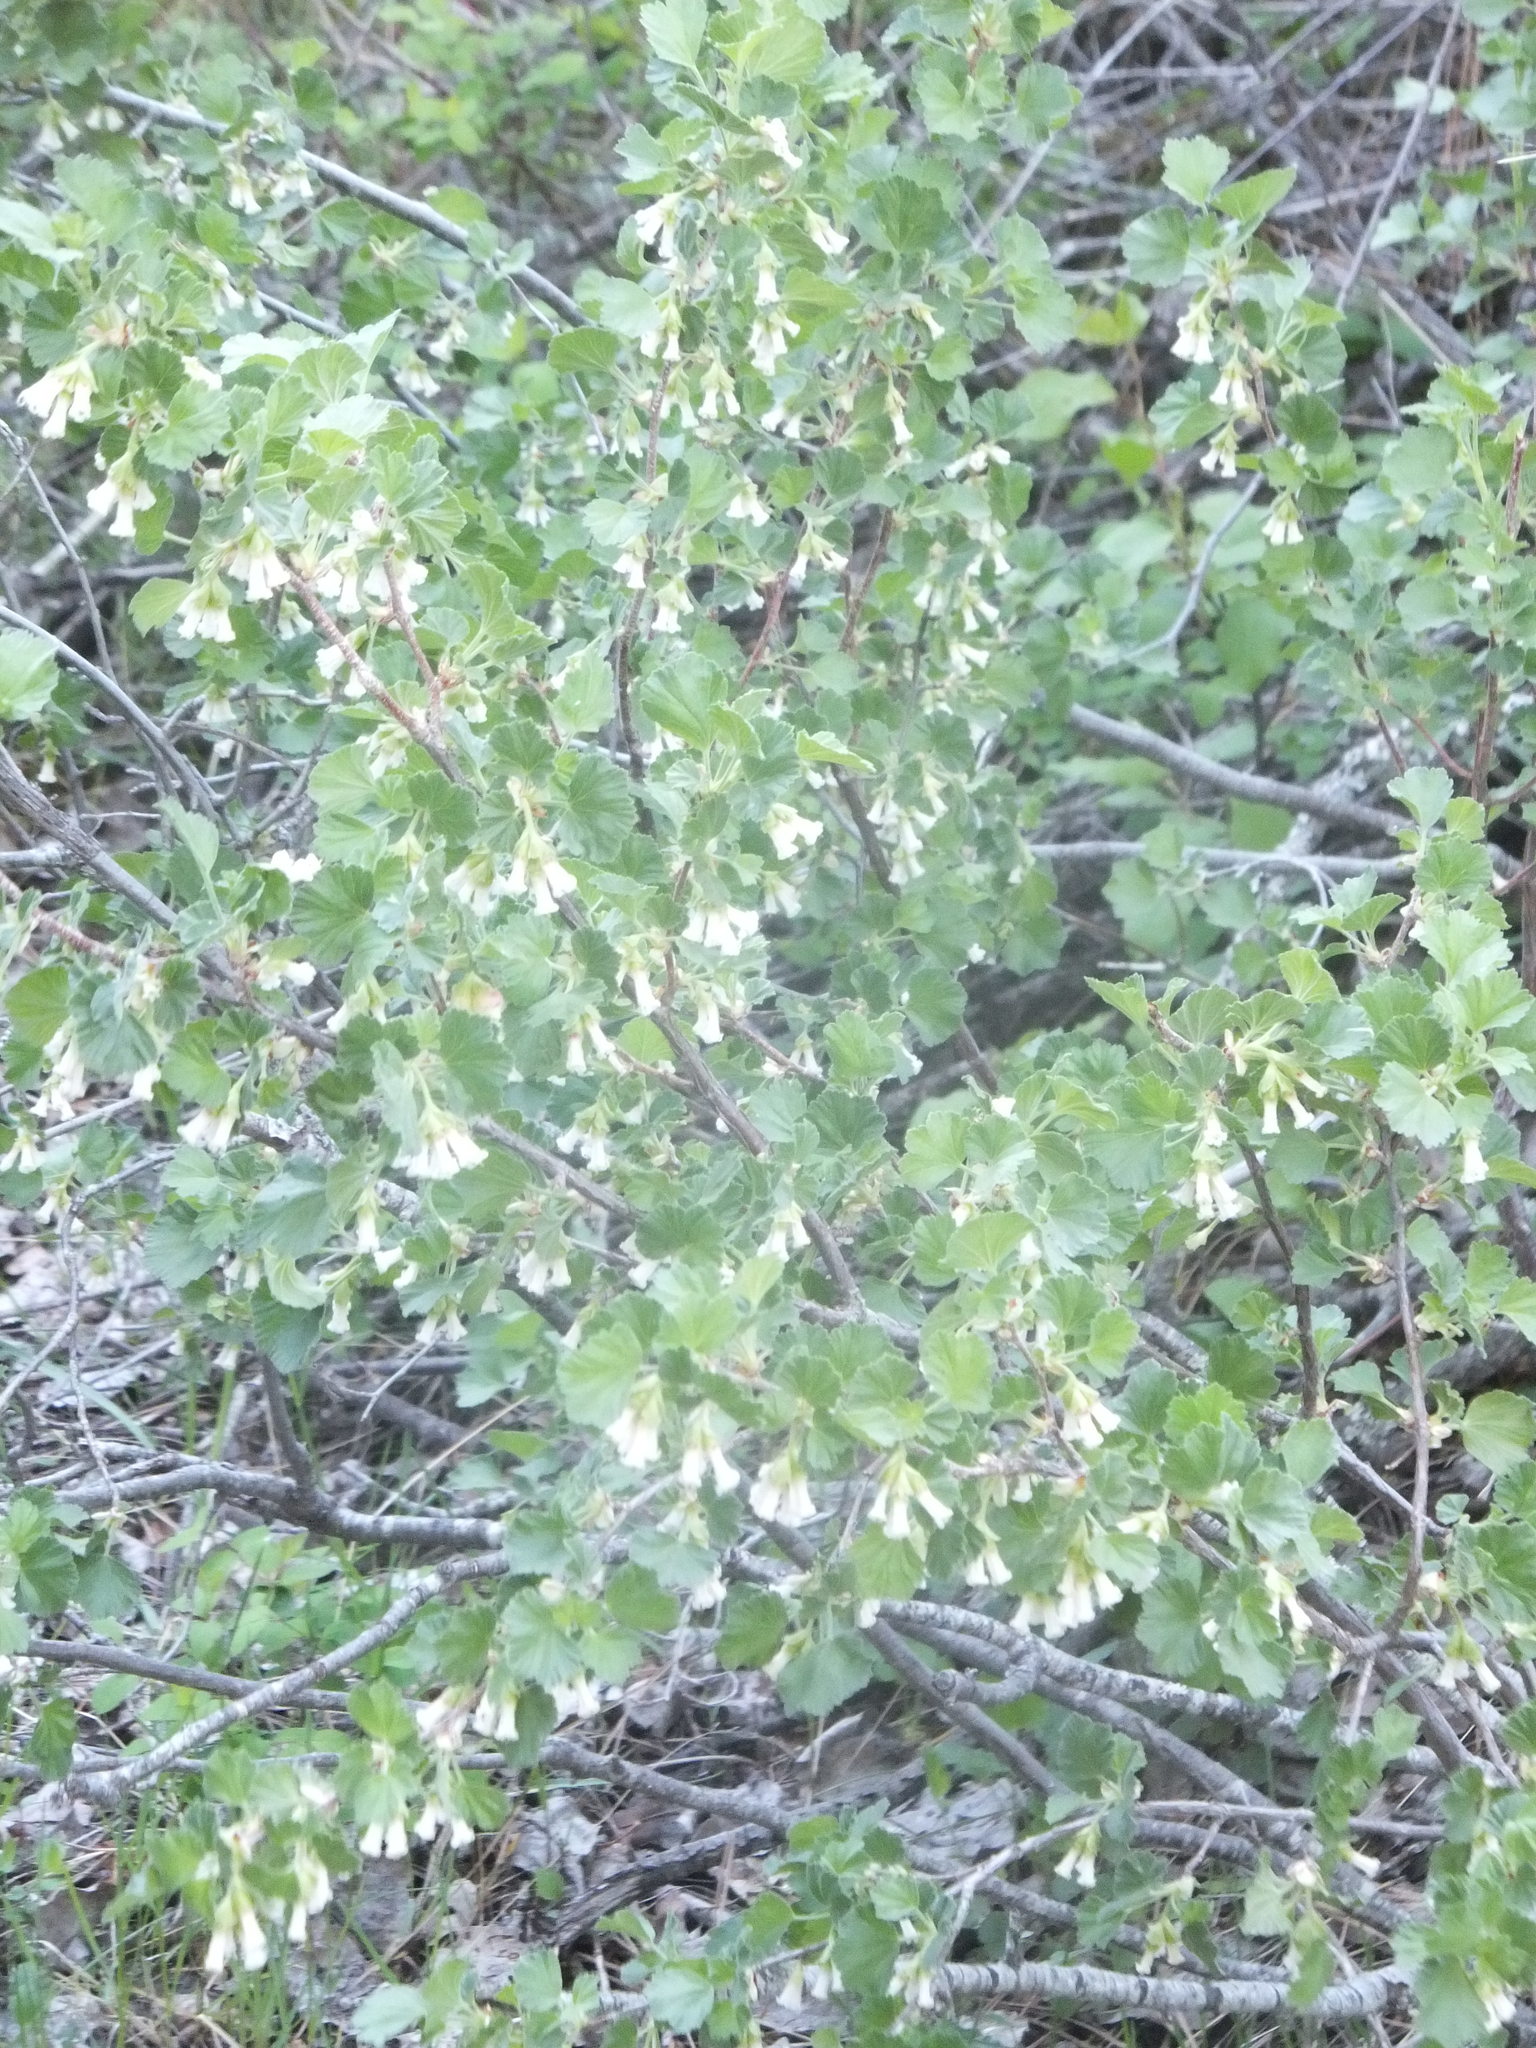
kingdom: Plantae
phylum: Tracheophyta
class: Magnoliopsida
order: Saxifragales
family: Grossulariaceae
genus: Ribes
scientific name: Ribes cereum
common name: Wax currant
